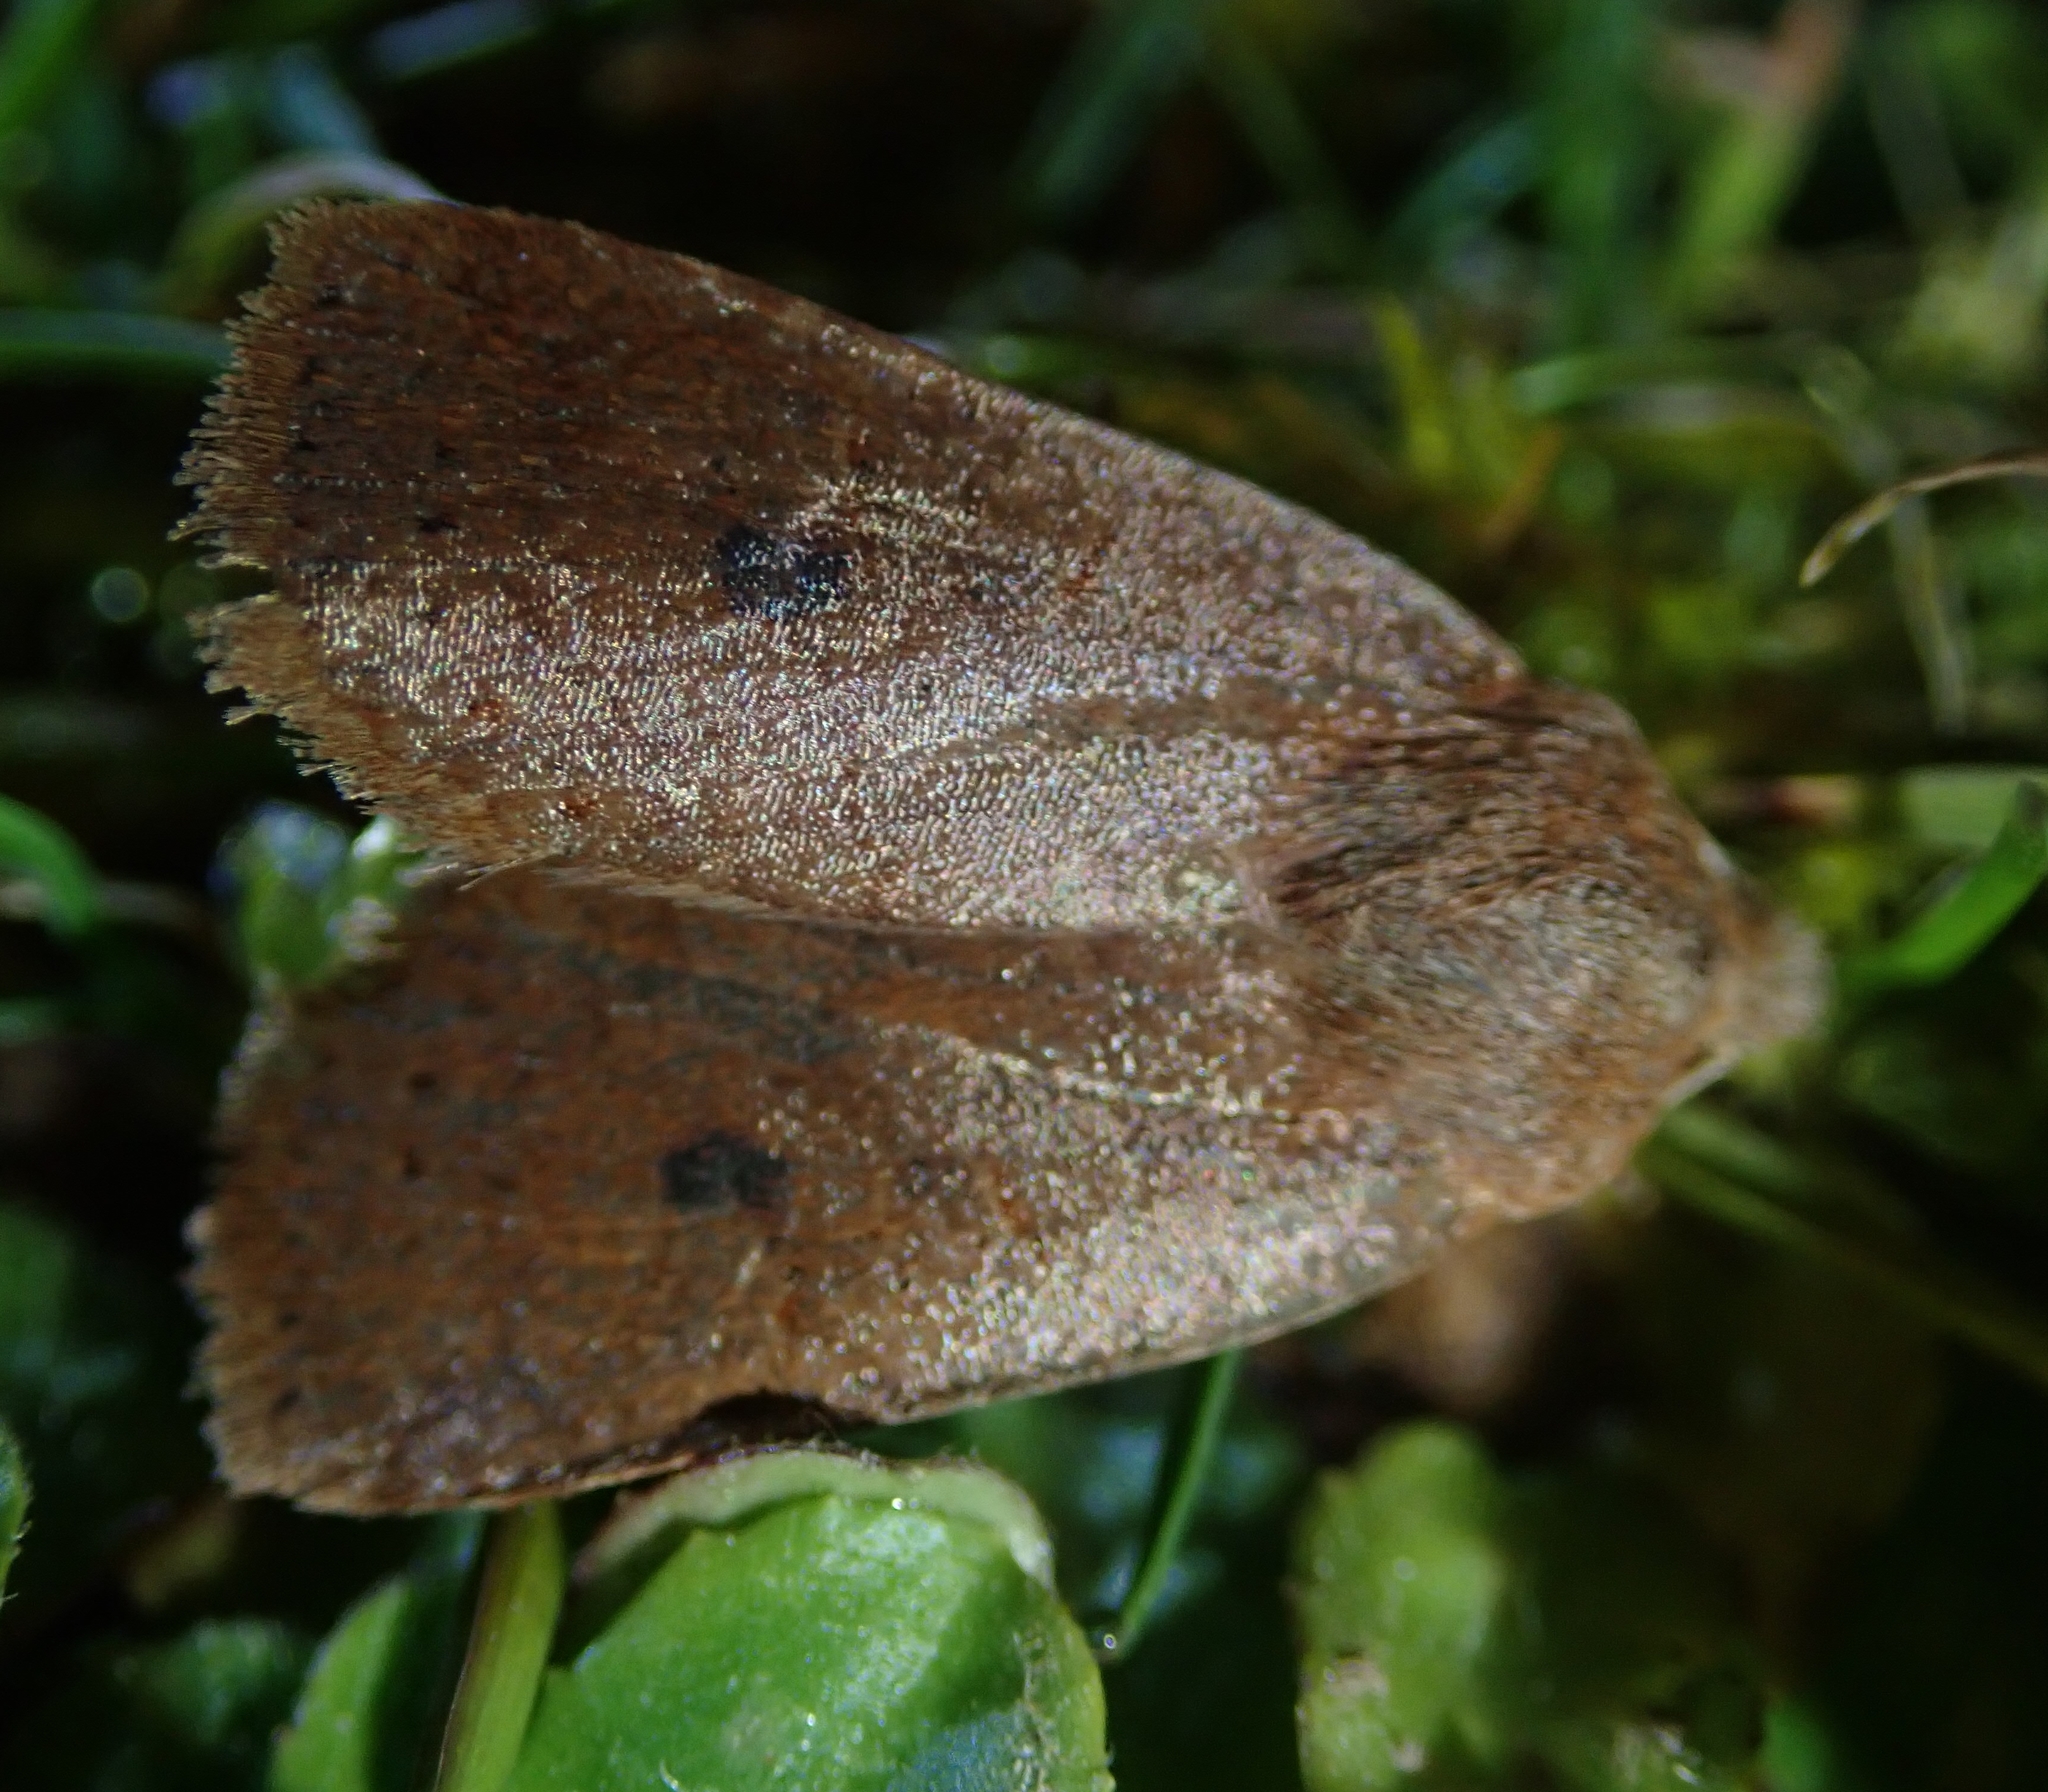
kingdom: Animalia
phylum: Arthropoda
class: Insecta
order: Lepidoptera
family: Noctuidae
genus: Conistra
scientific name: Conistra vaccinii
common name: Chestnut
